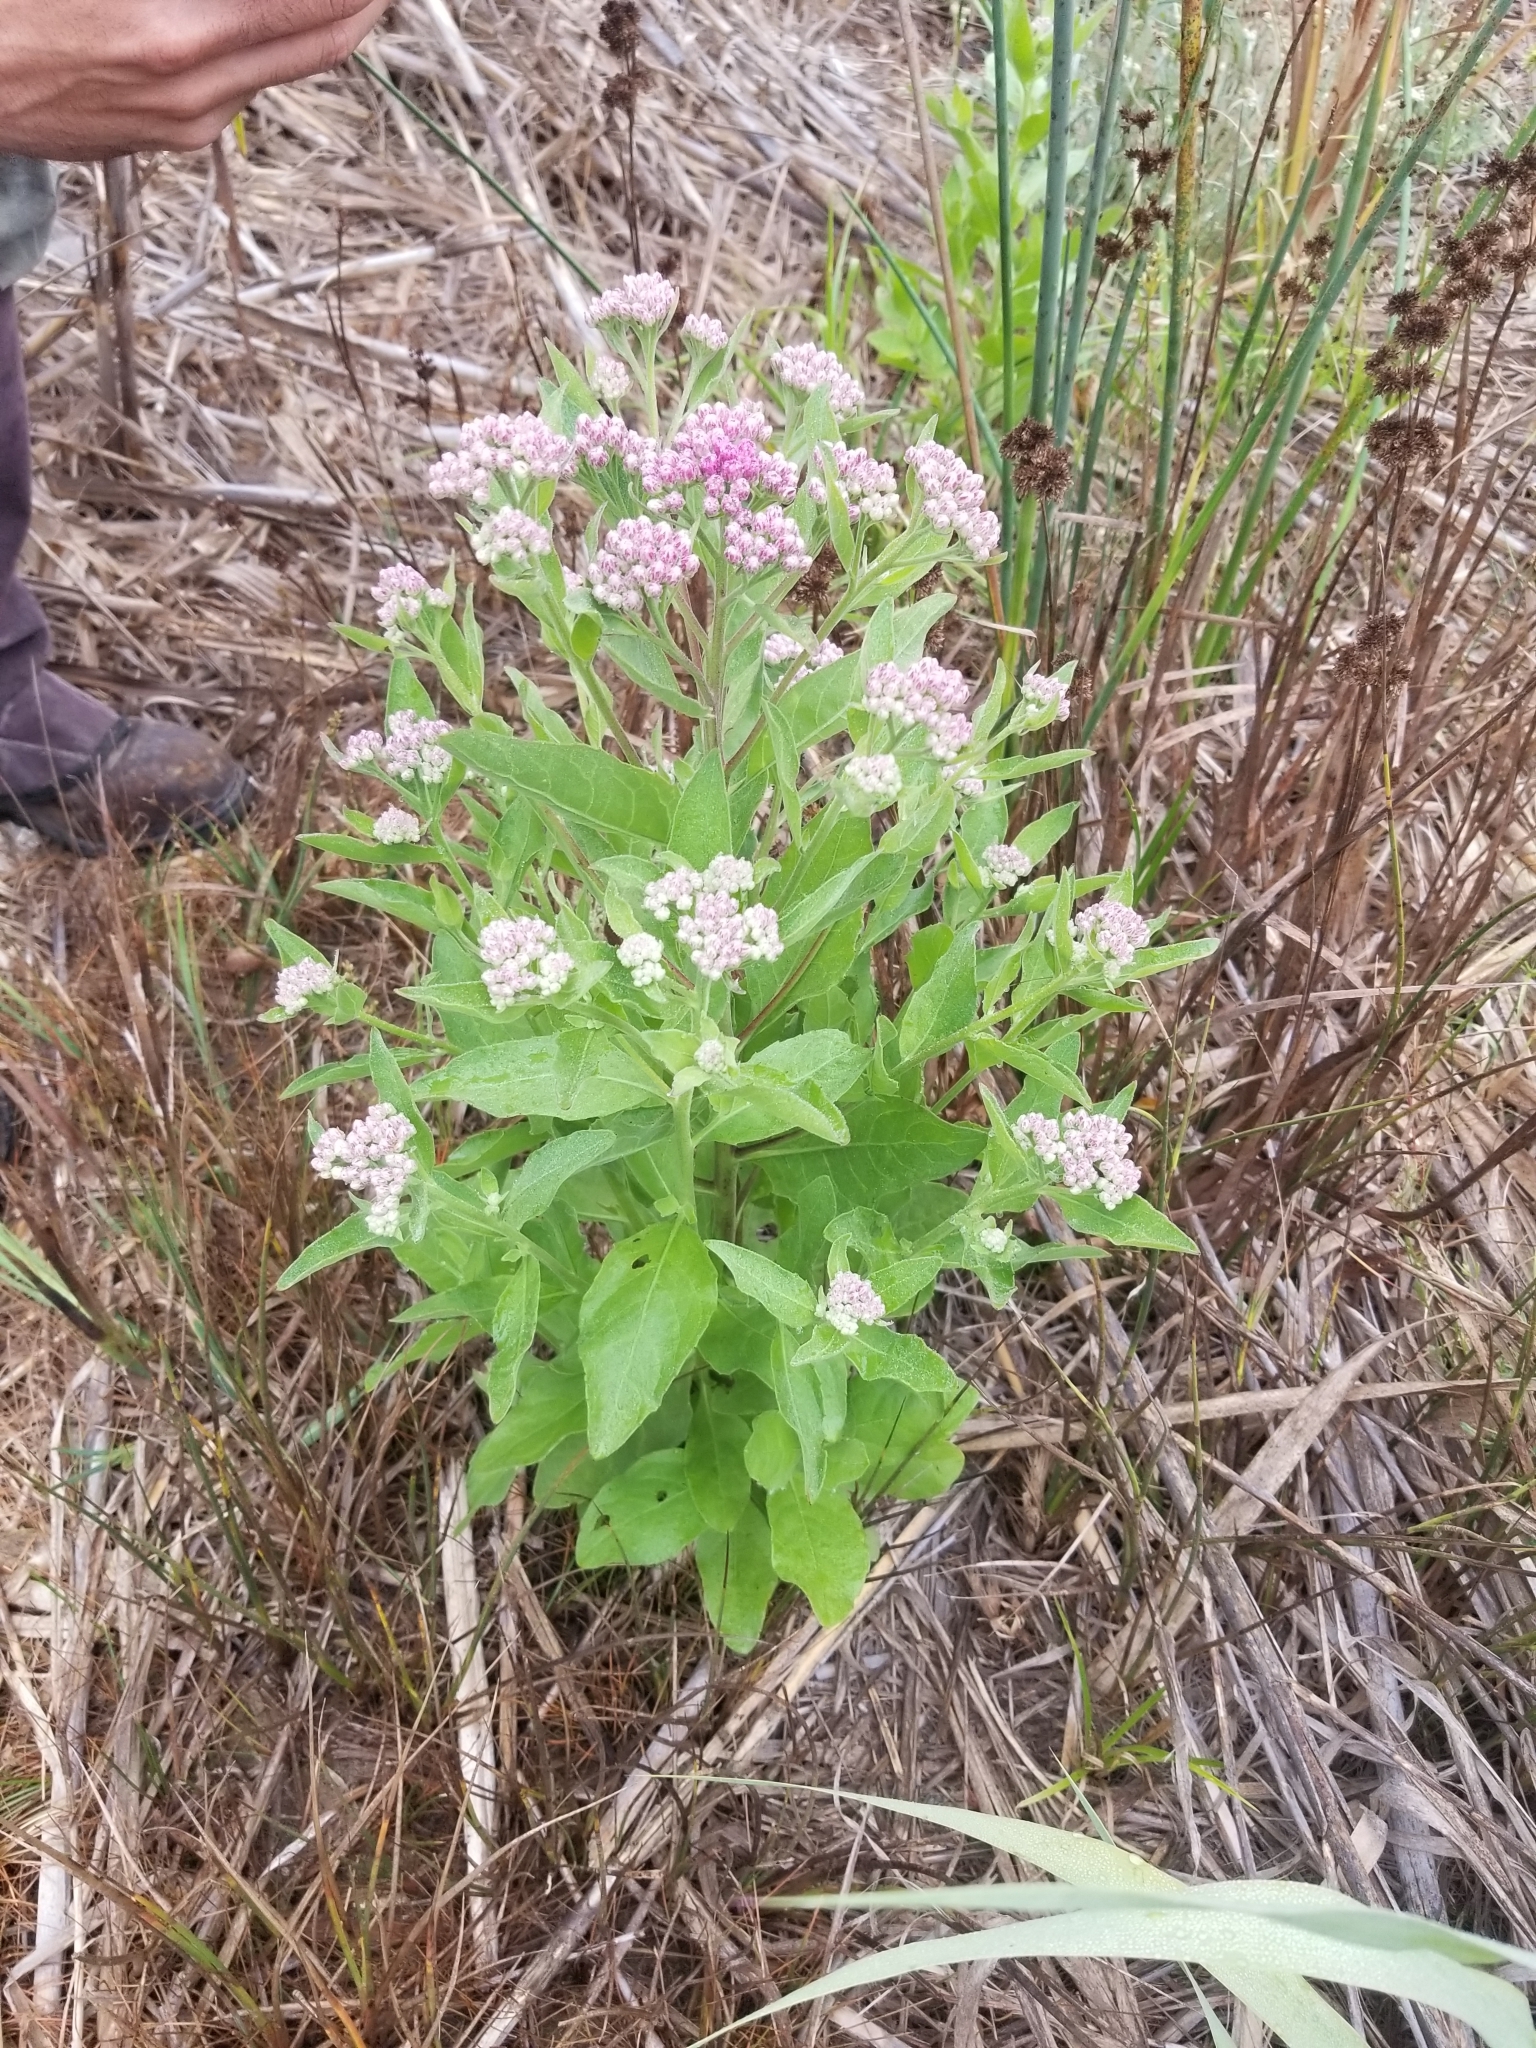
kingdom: Plantae
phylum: Tracheophyta
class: Magnoliopsida
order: Asterales
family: Asteraceae
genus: Pluchea
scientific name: Pluchea odorata
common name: Saltmarsh fleabane
